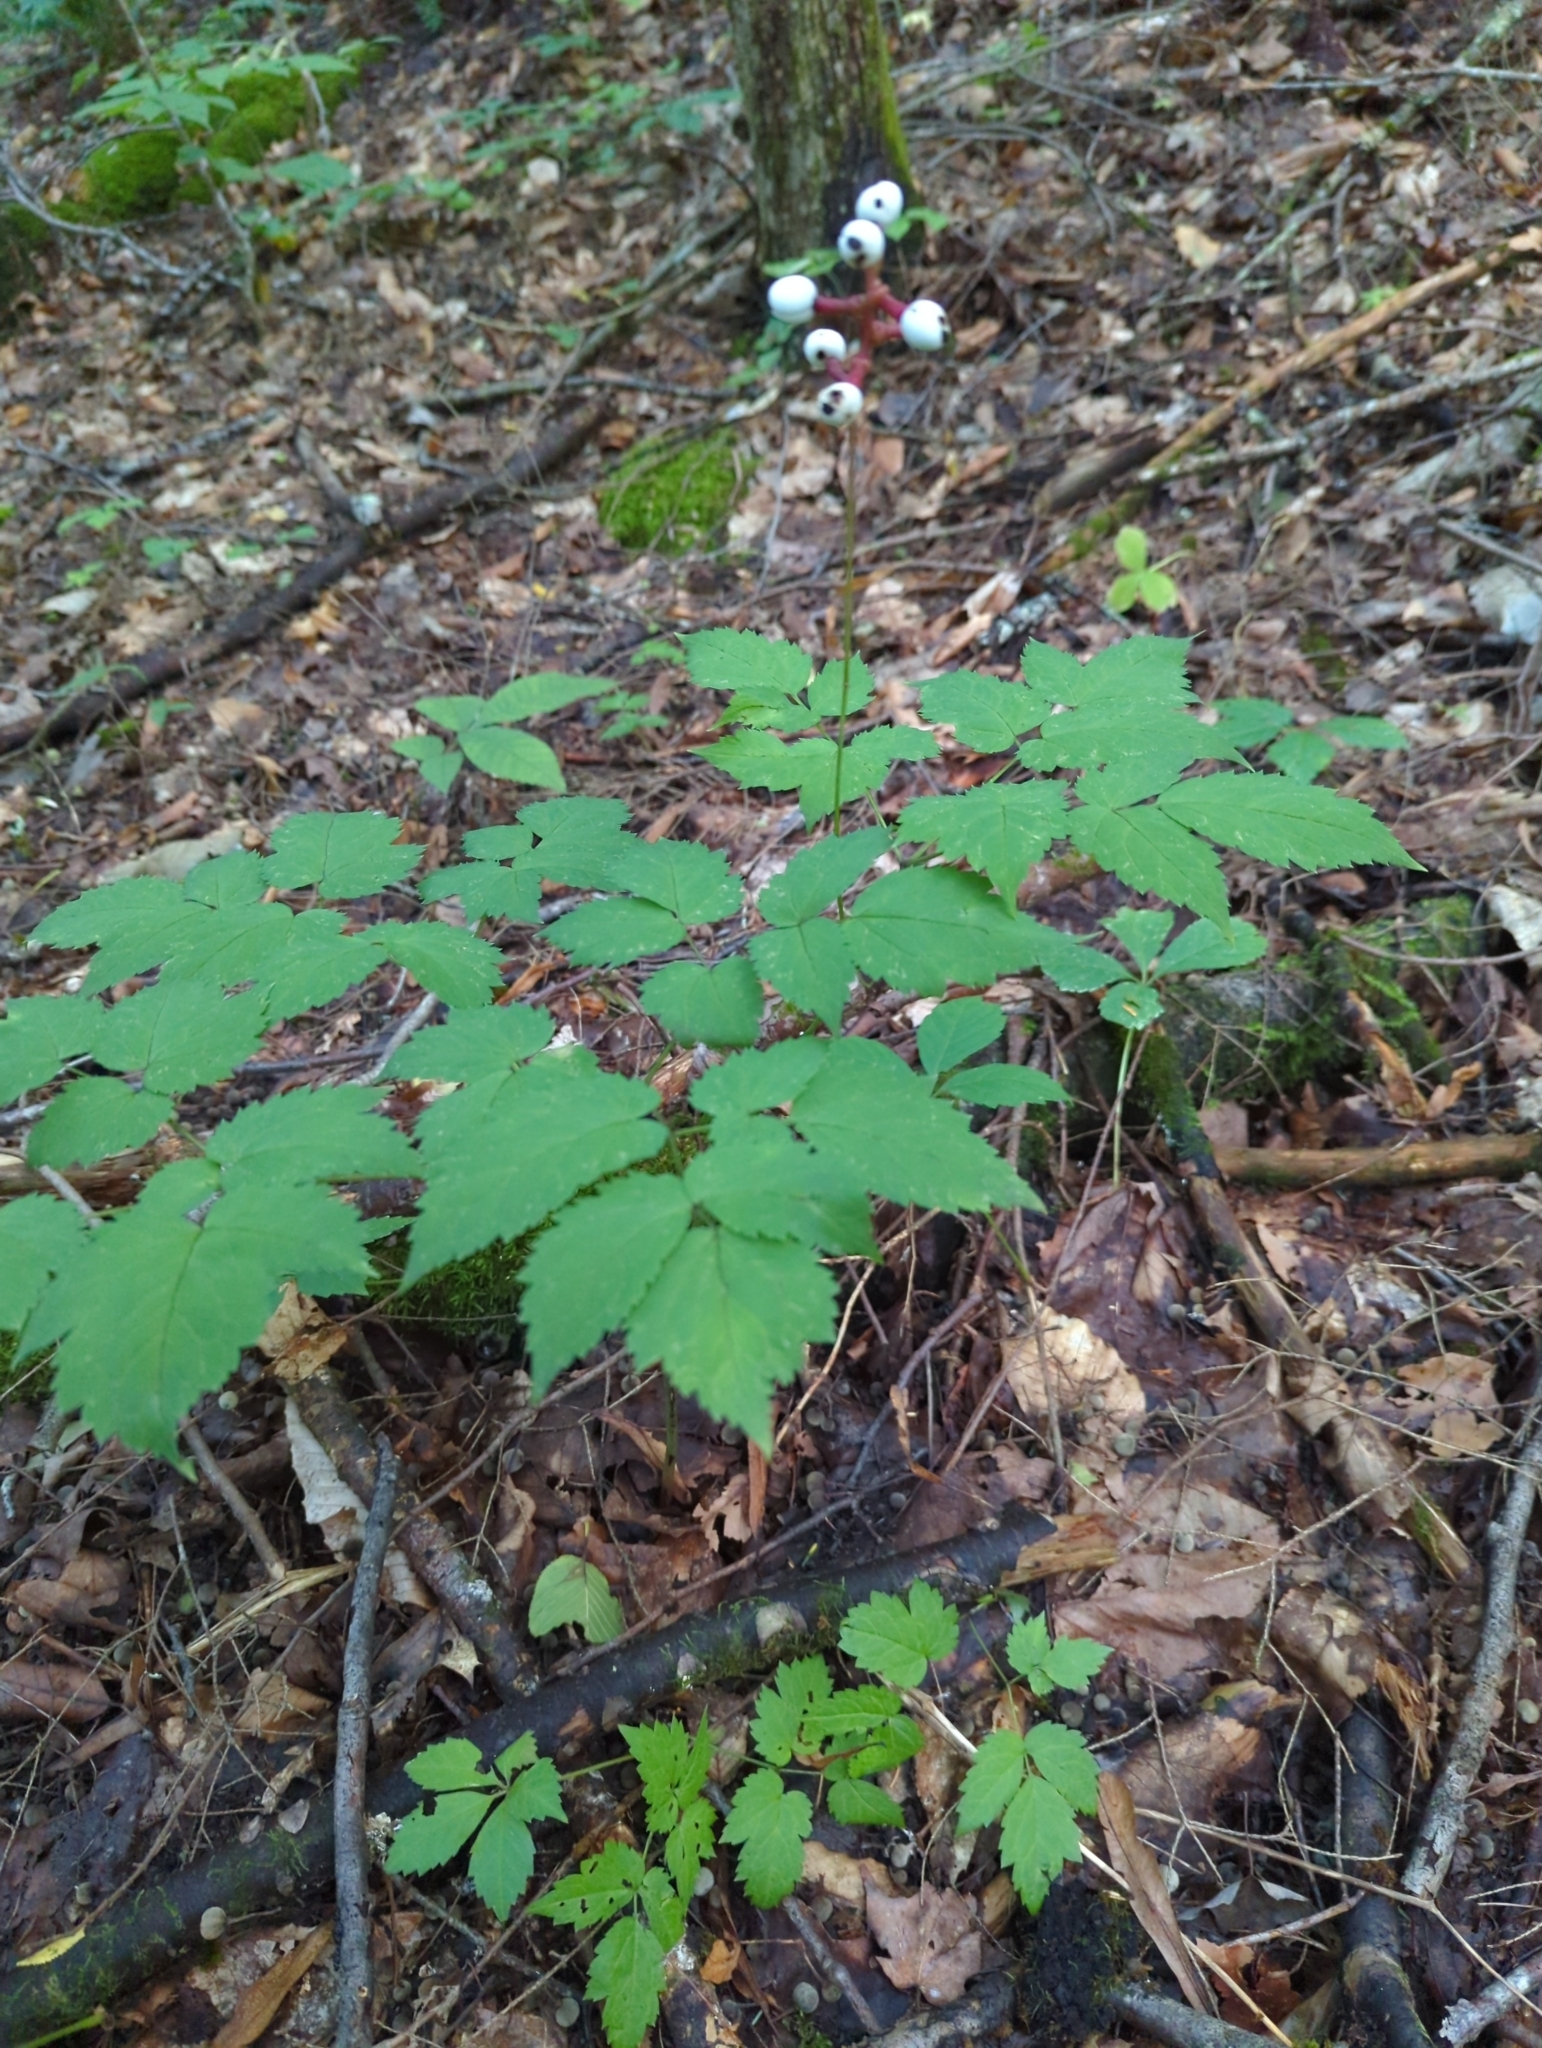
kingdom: Plantae
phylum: Tracheophyta
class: Magnoliopsida
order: Ranunculales
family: Ranunculaceae
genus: Actaea
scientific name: Actaea pachypoda
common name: Doll's-eyes
